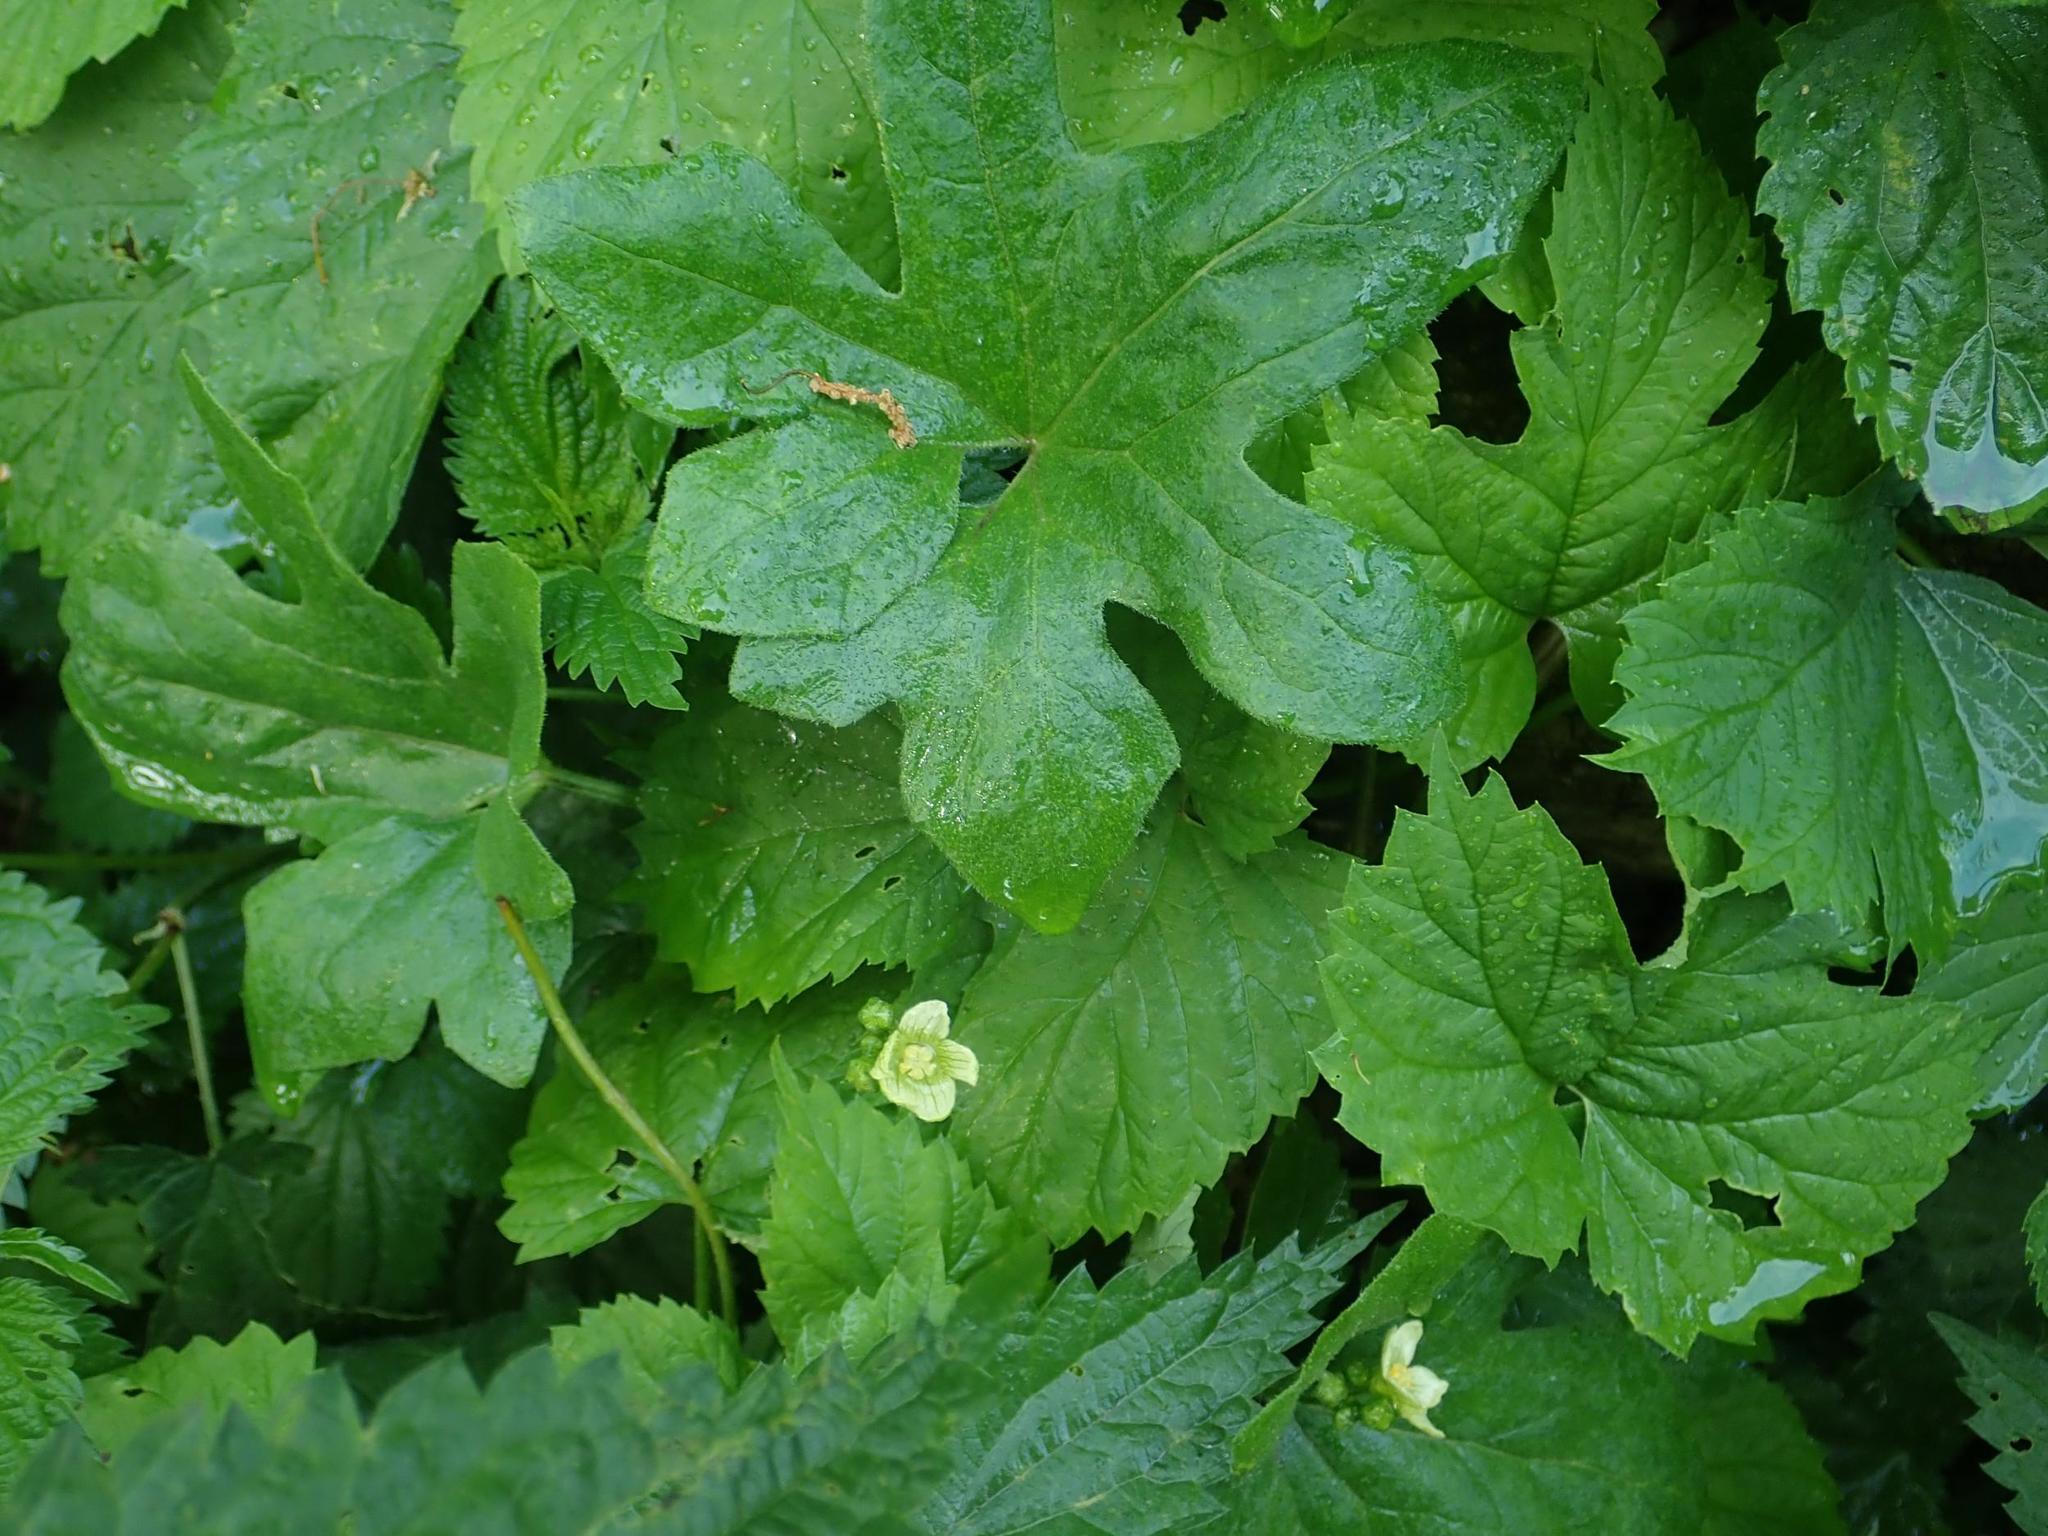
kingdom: Plantae
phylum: Tracheophyta
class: Magnoliopsida
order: Cucurbitales
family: Cucurbitaceae
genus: Bryonia
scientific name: Bryonia cretica
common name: Cretan bryony
